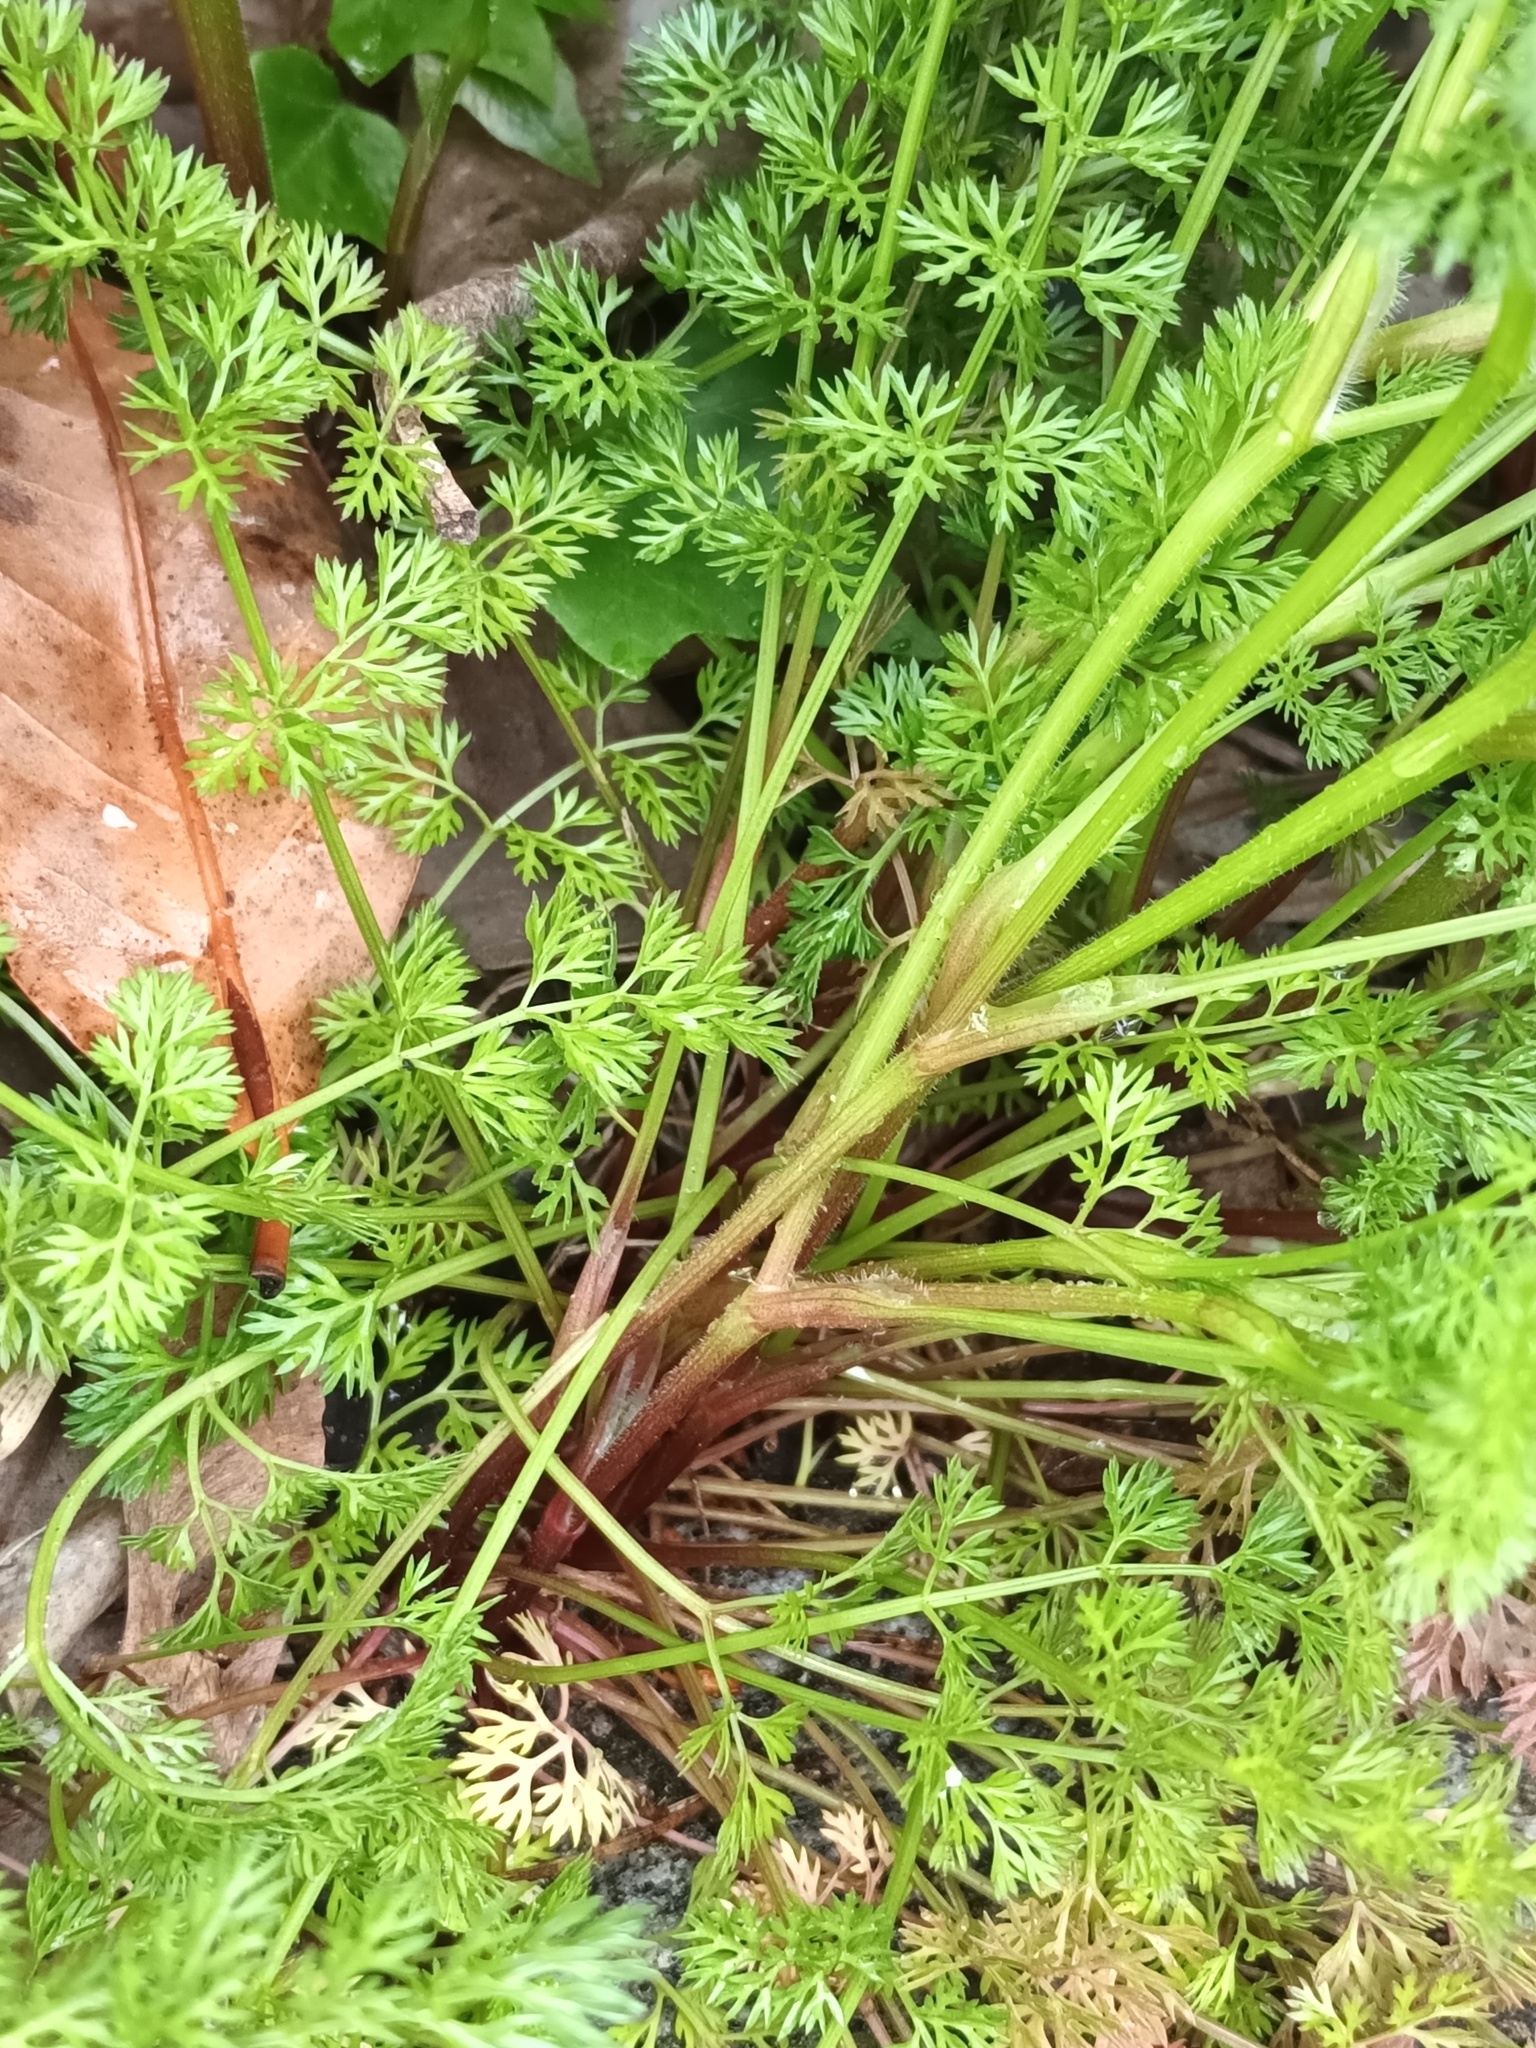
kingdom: Plantae
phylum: Tracheophyta
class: Magnoliopsida
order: Apiales
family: Apiaceae
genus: Scandix
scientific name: Scandix pecten-veneris
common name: Shepherd's-needle
